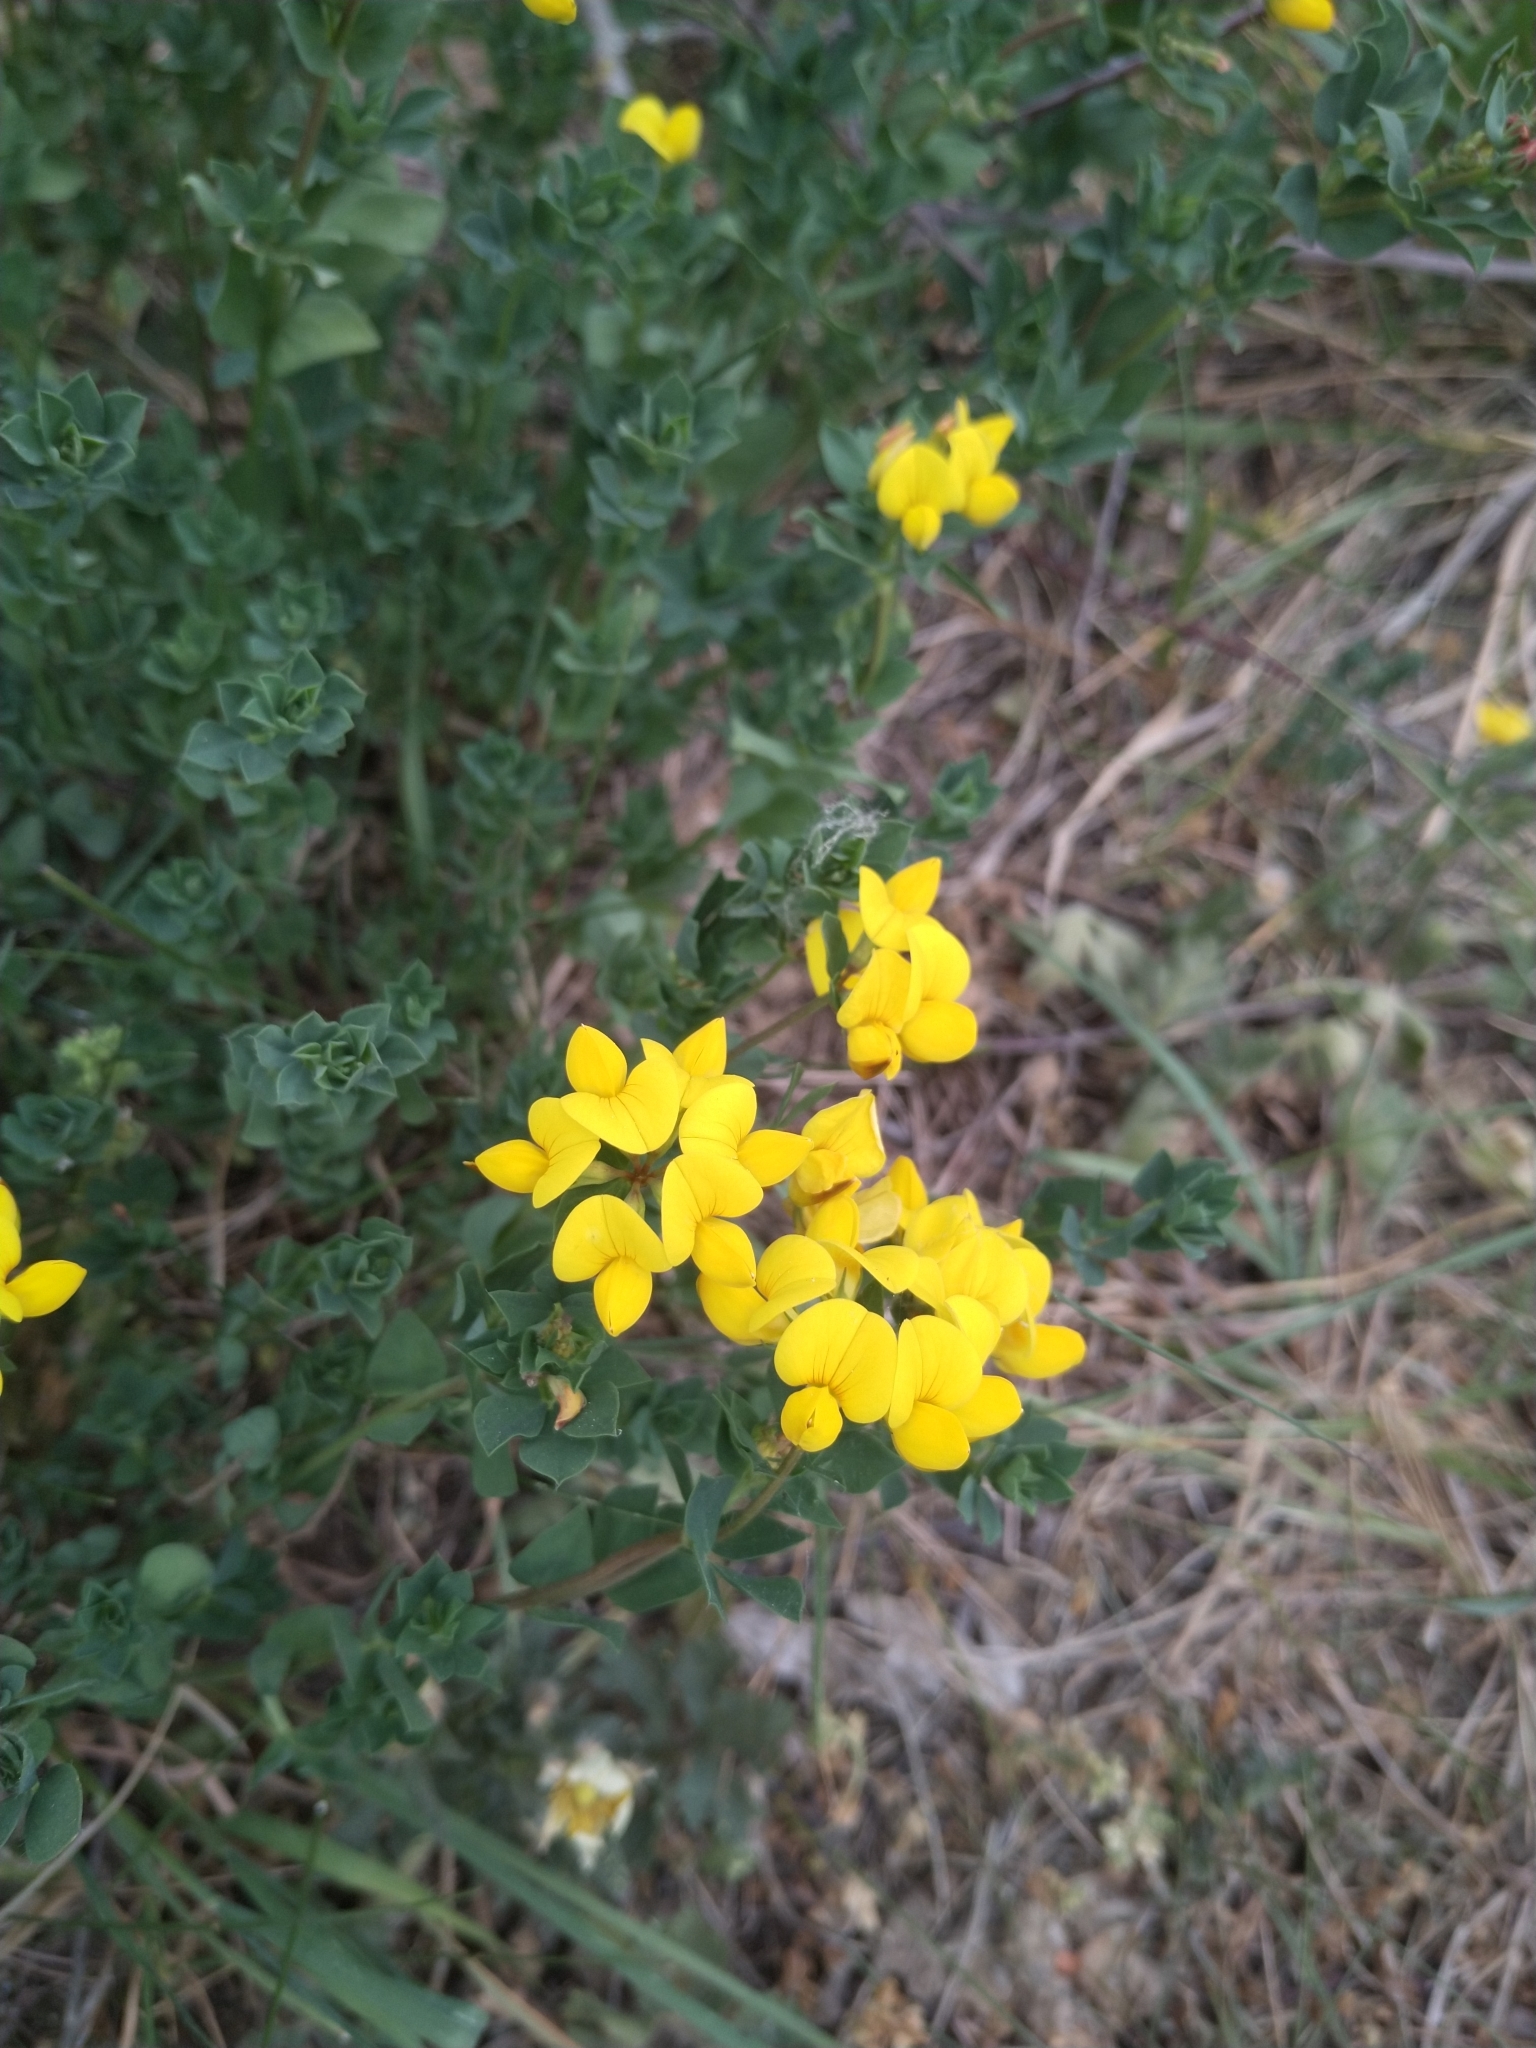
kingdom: Plantae
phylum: Tracheophyta
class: Magnoliopsida
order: Fabales
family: Fabaceae
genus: Lotus
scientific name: Lotus corniculatus
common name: Common bird's-foot-trefoil
